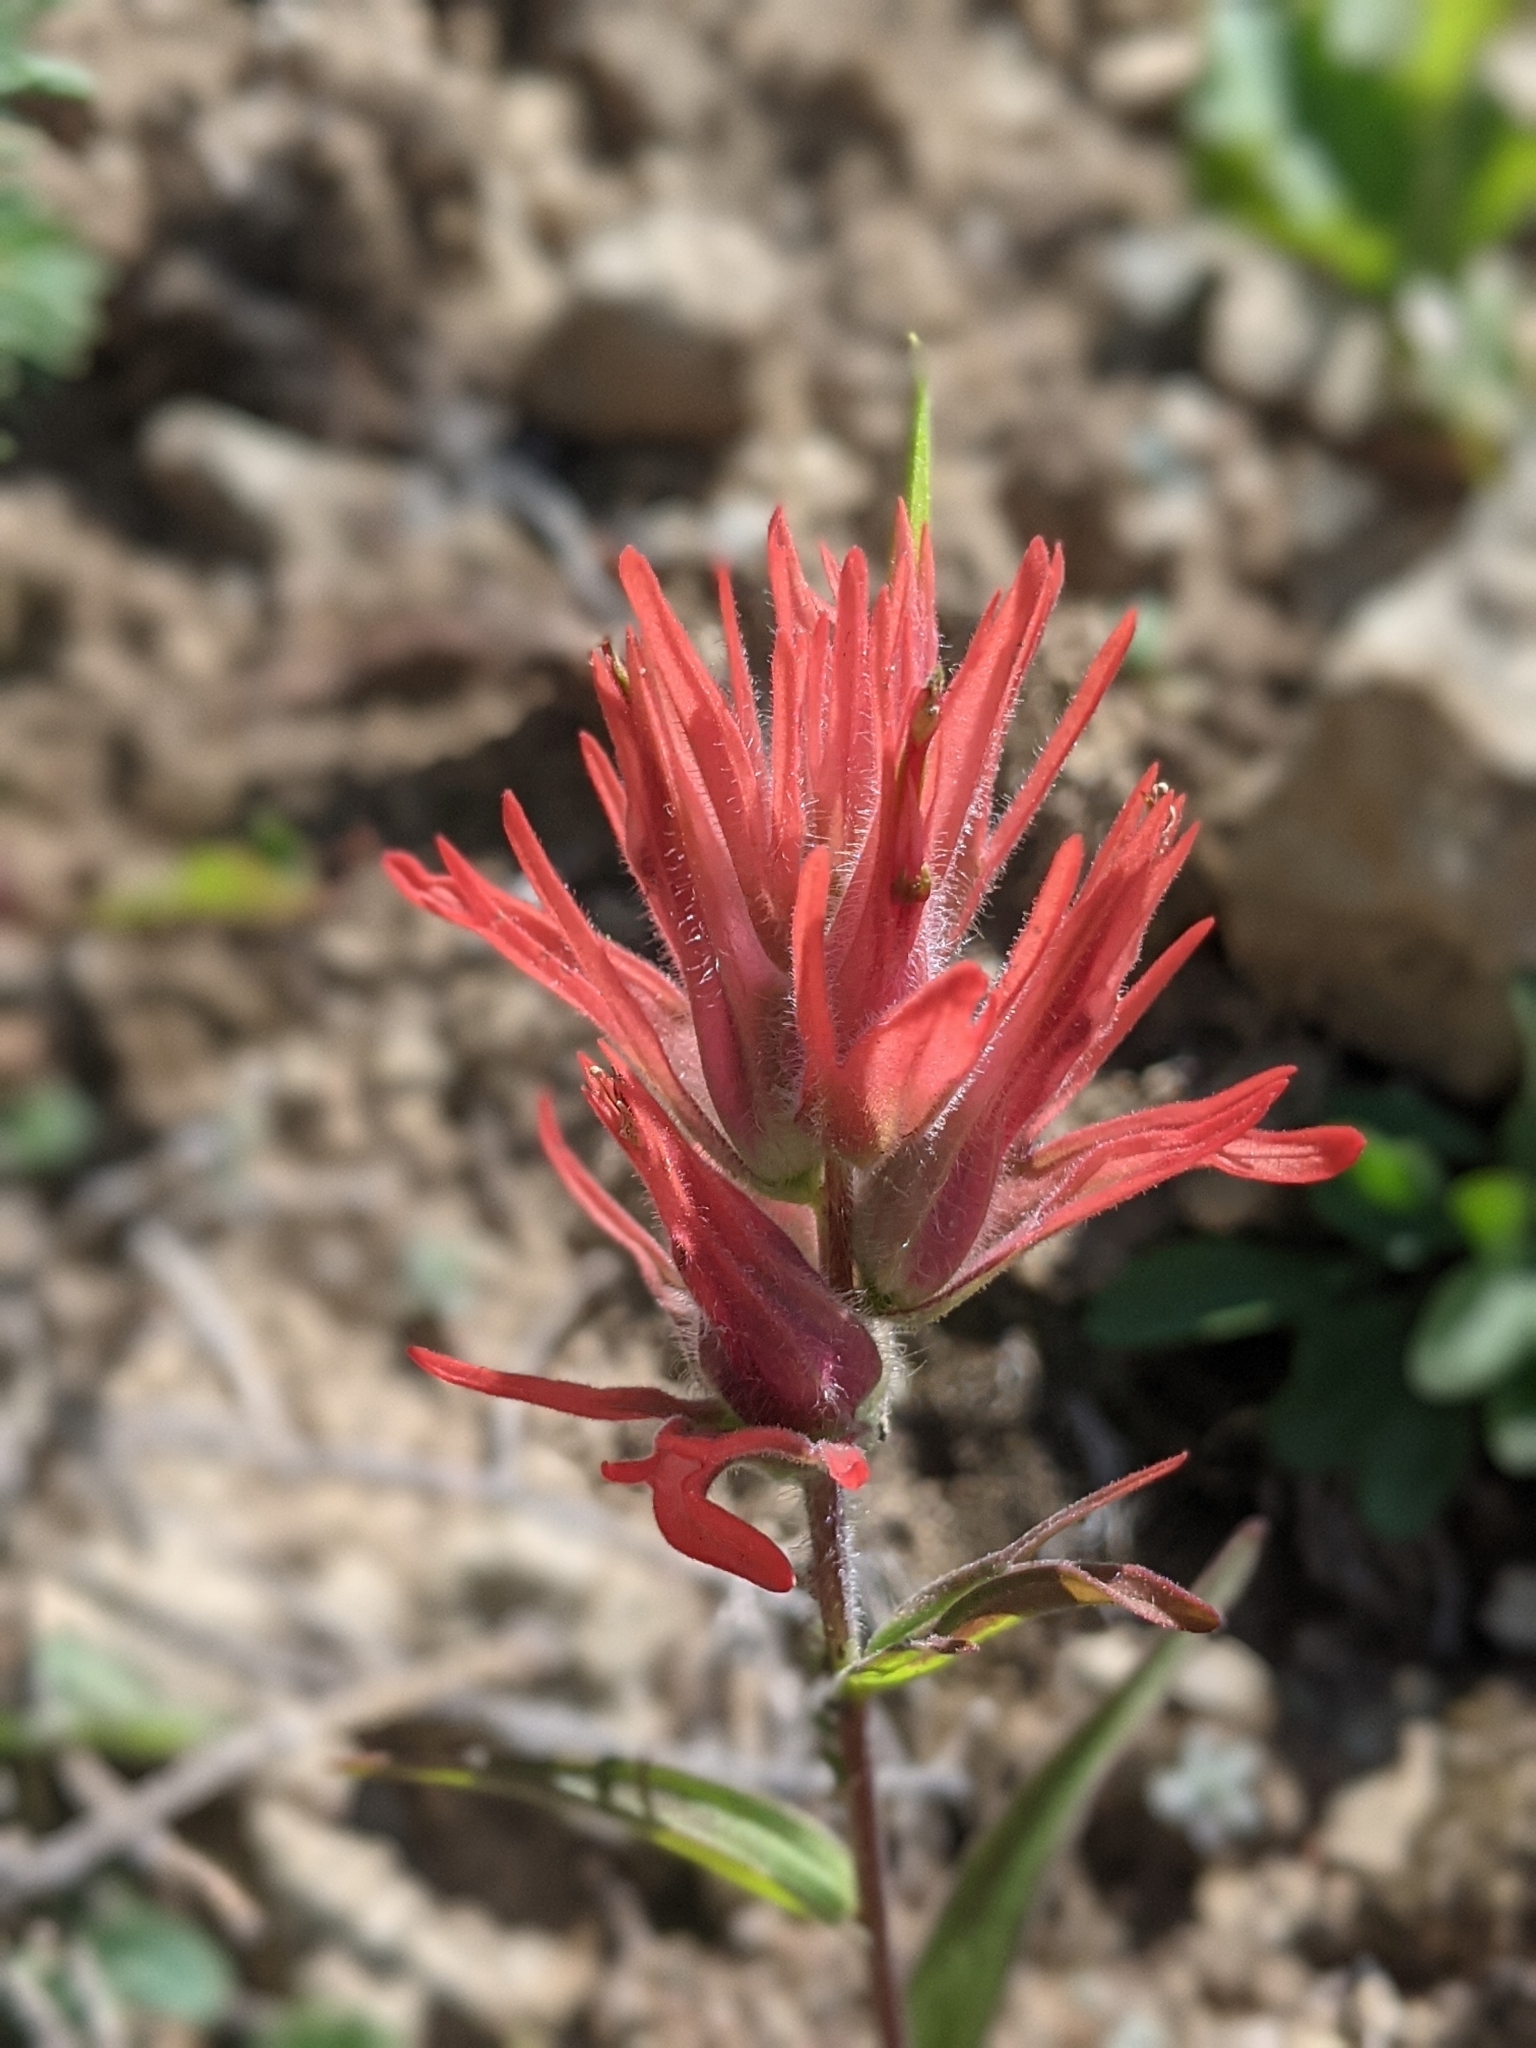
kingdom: Plantae
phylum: Tracheophyta
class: Magnoliopsida
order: Lamiales
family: Orobanchaceae
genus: Castilleja
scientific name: Castilleja miniata
